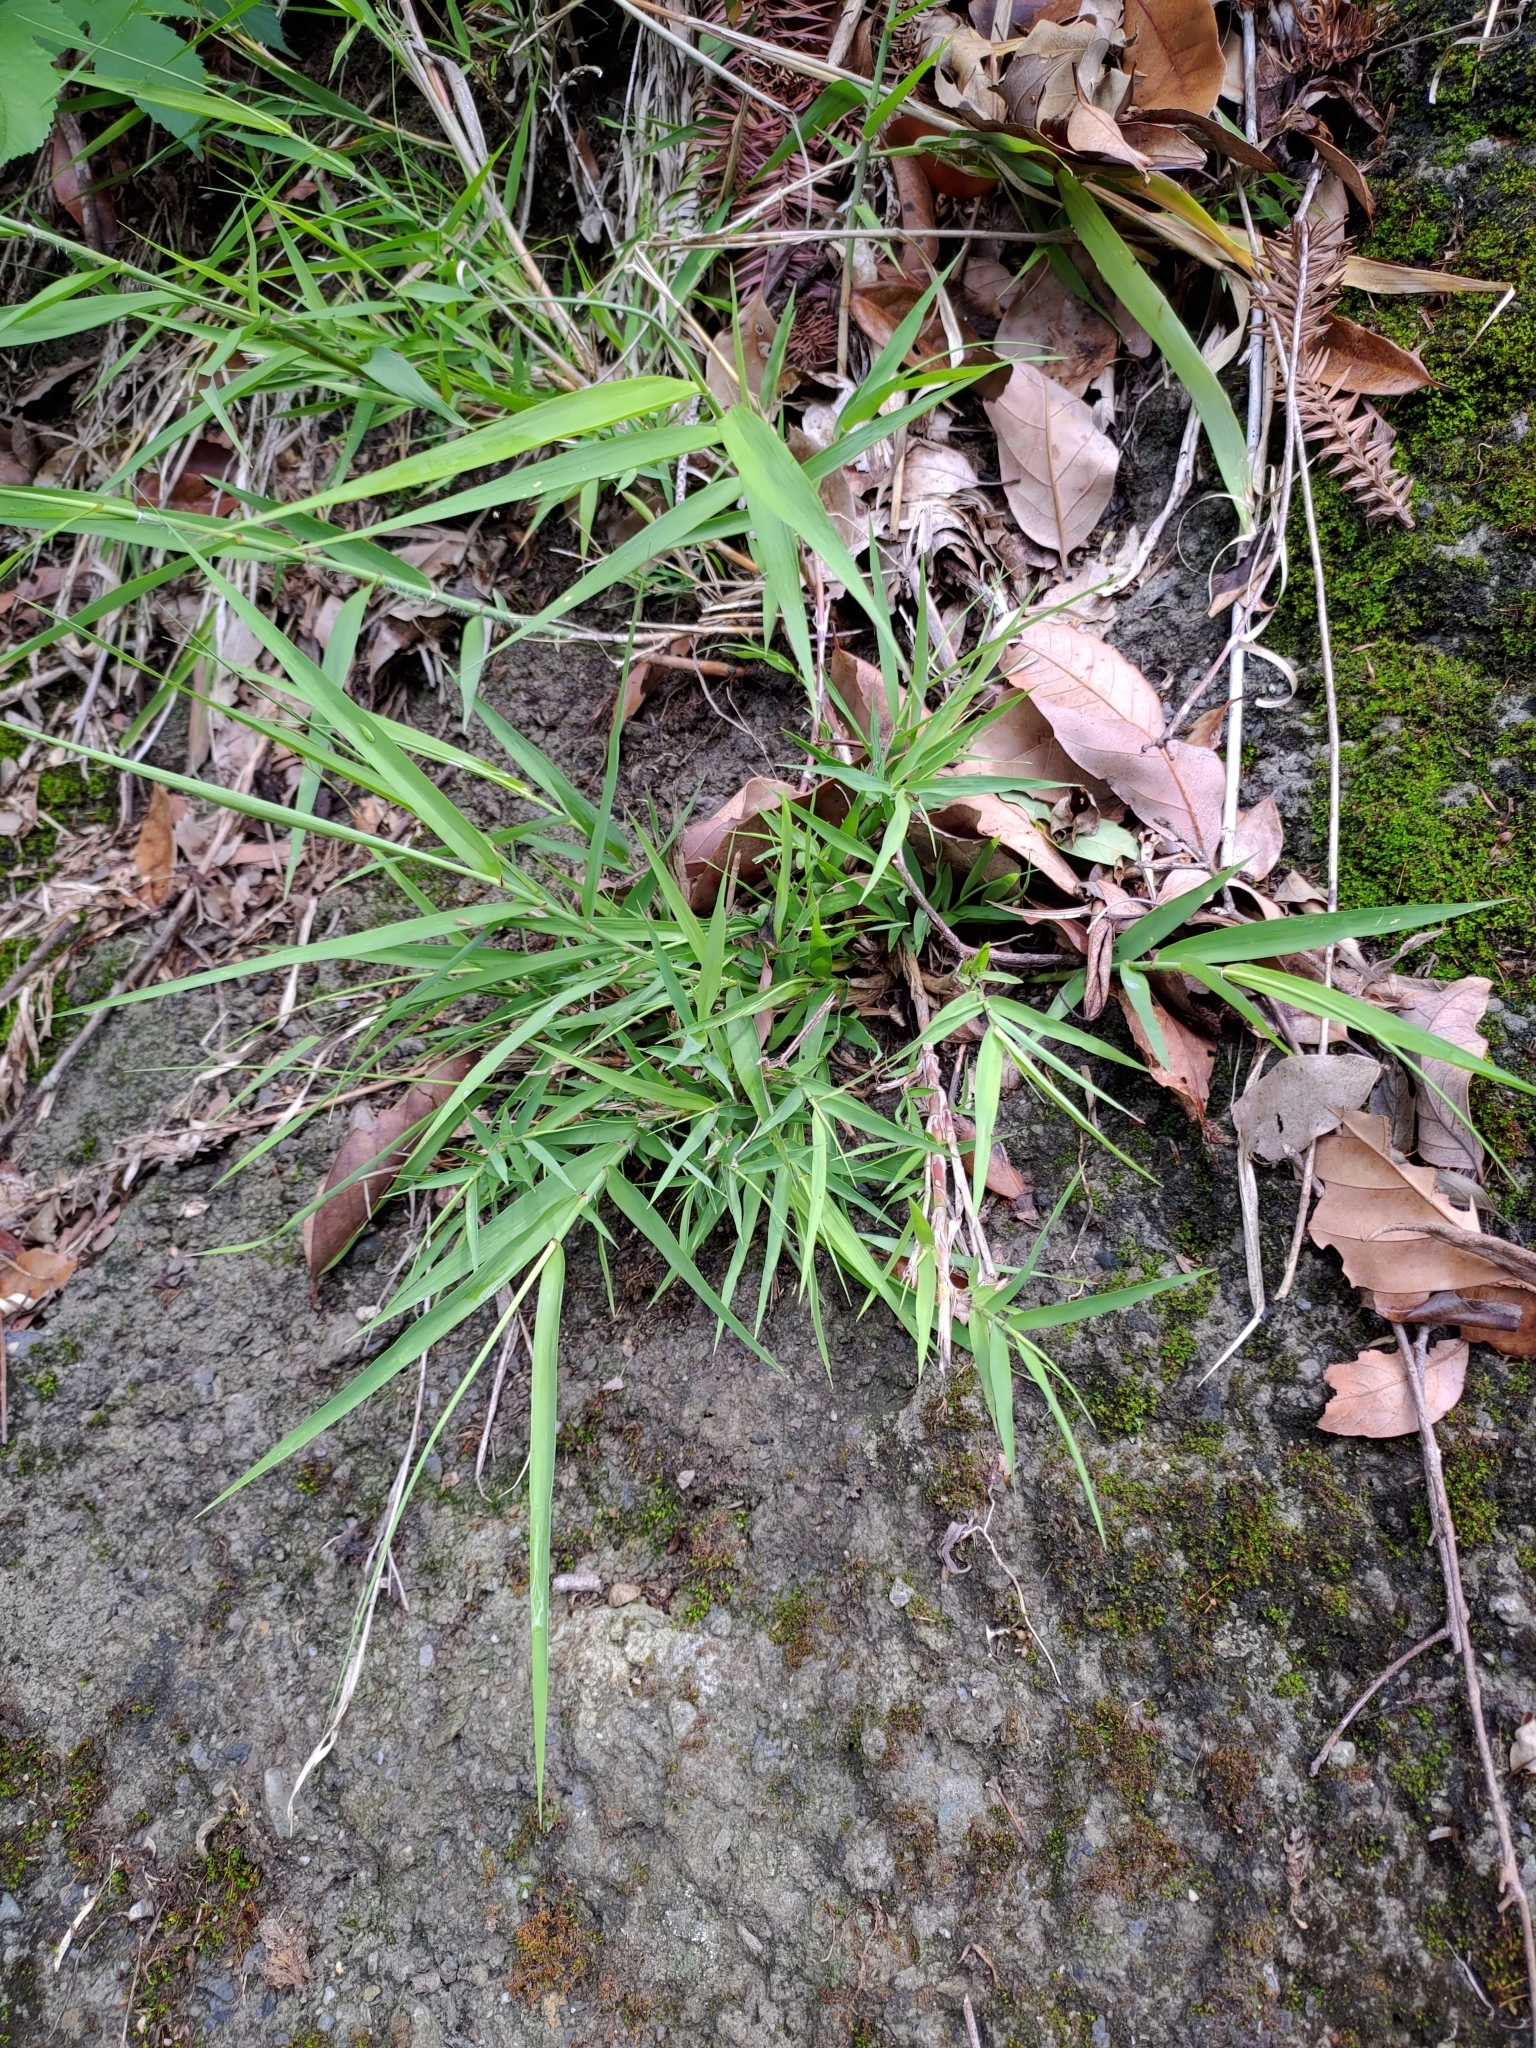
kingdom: Plantae
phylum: Tracheophyta
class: Liliopsida
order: Poales
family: Poaceae
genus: Arundo
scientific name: Arundo formosana
